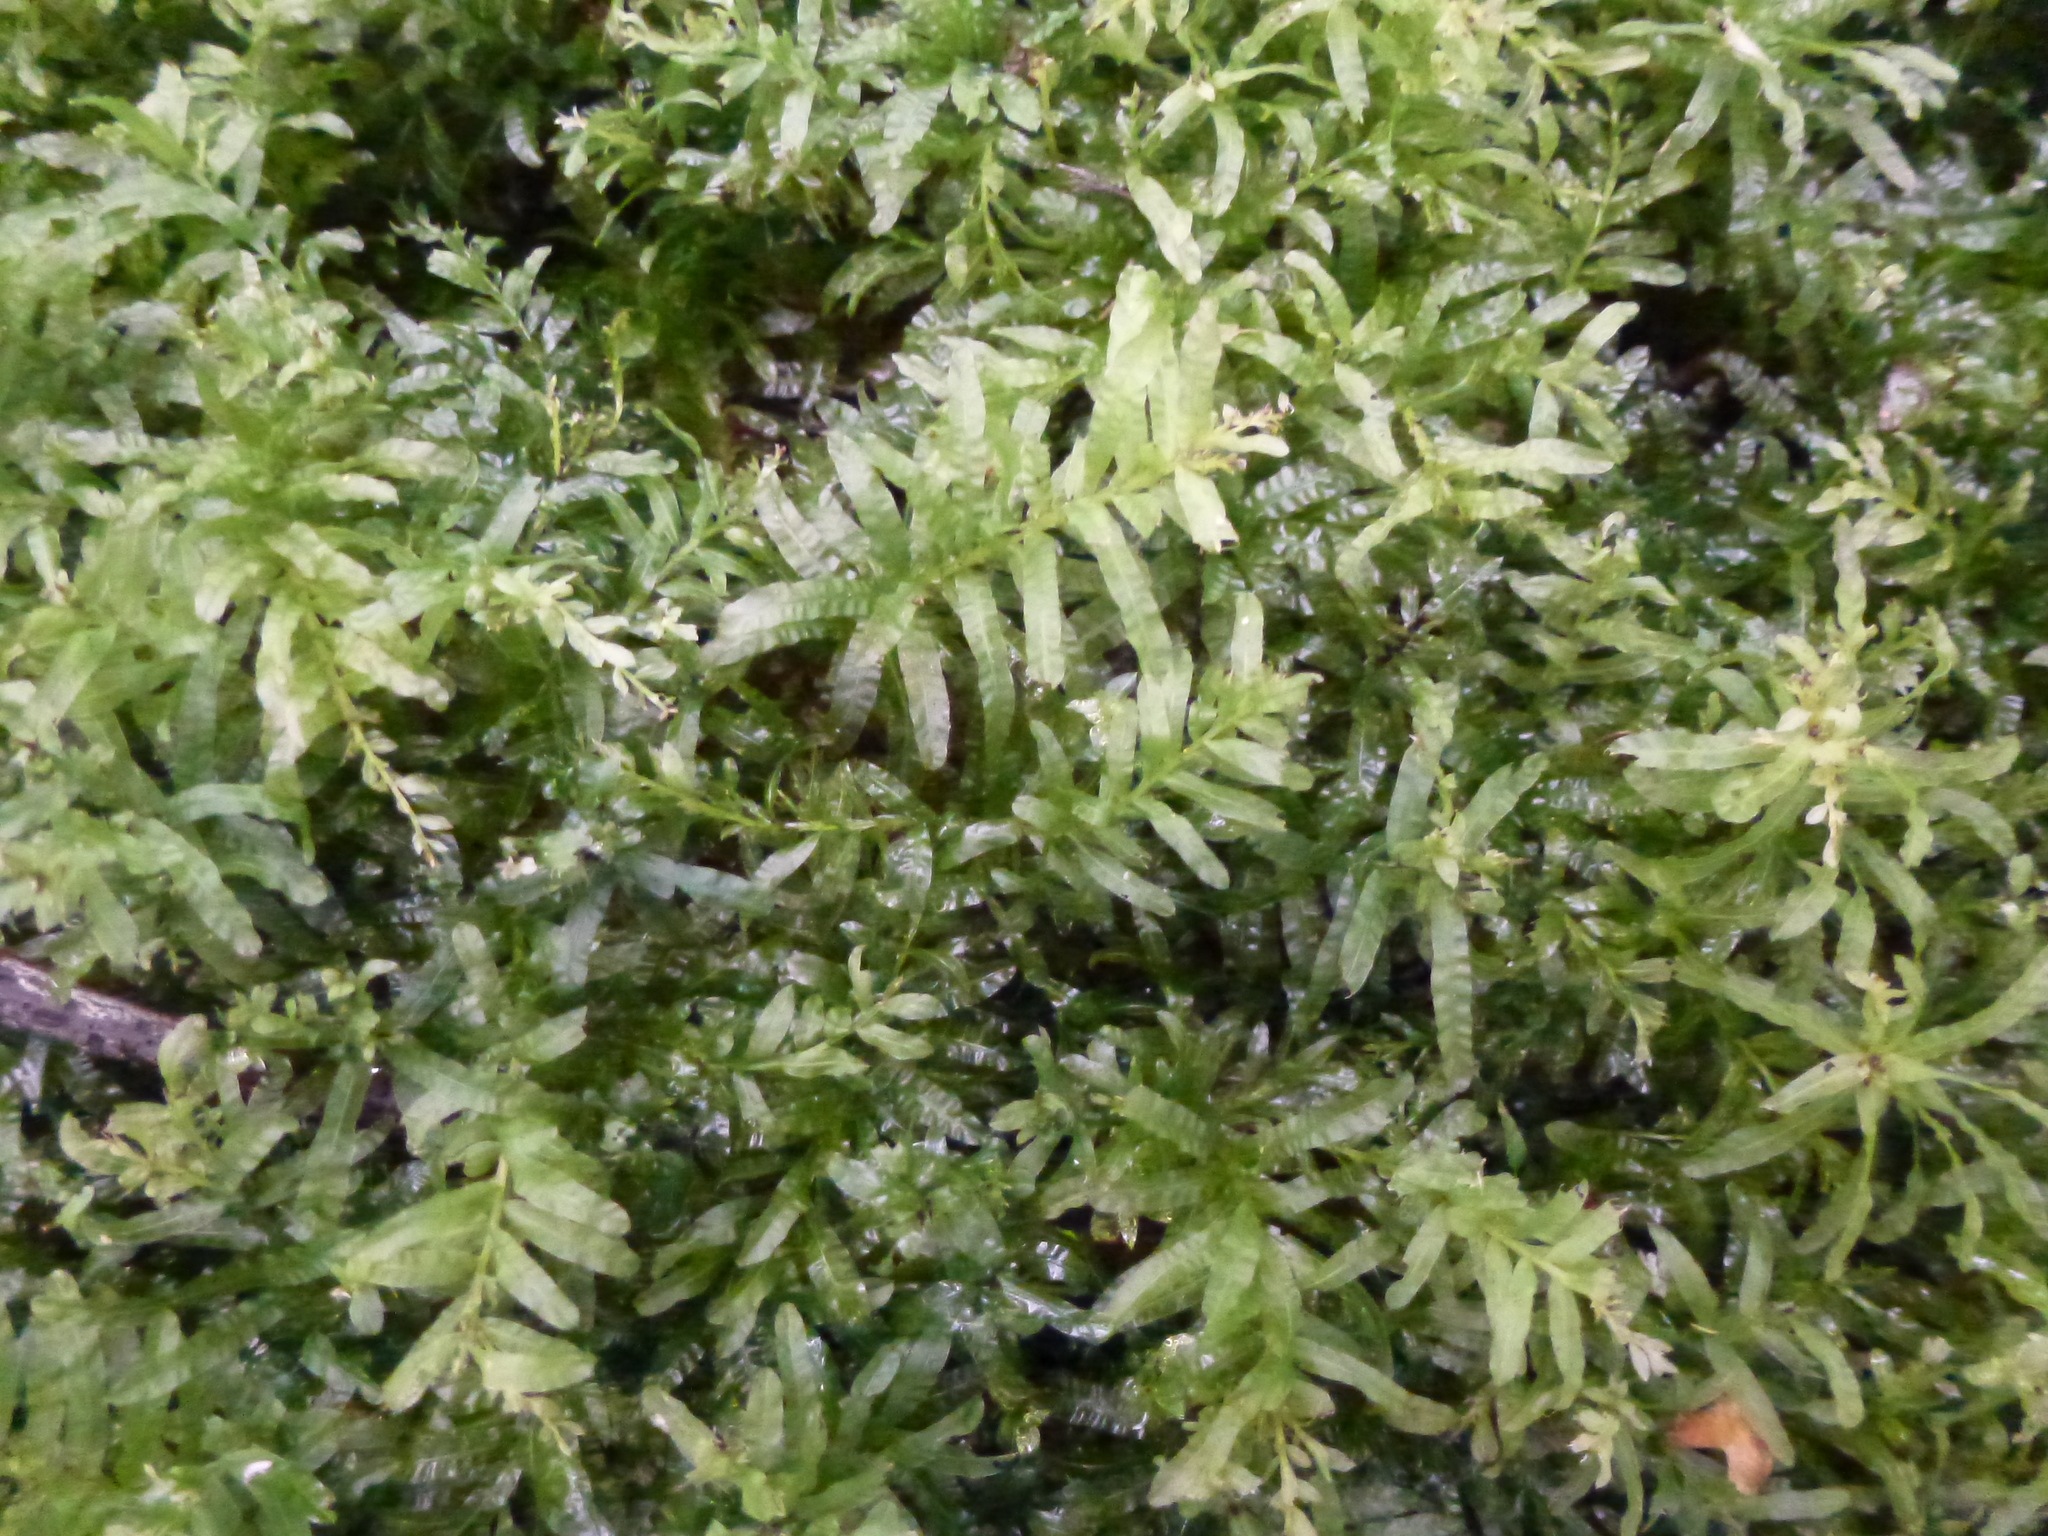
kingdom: Plantae
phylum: Bryophyta
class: Bryopsida
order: Bryales
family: Mniaceae
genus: Plagiomnium
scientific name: Plagiomnium undulatum
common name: Hart's-tongue thyme-moss
